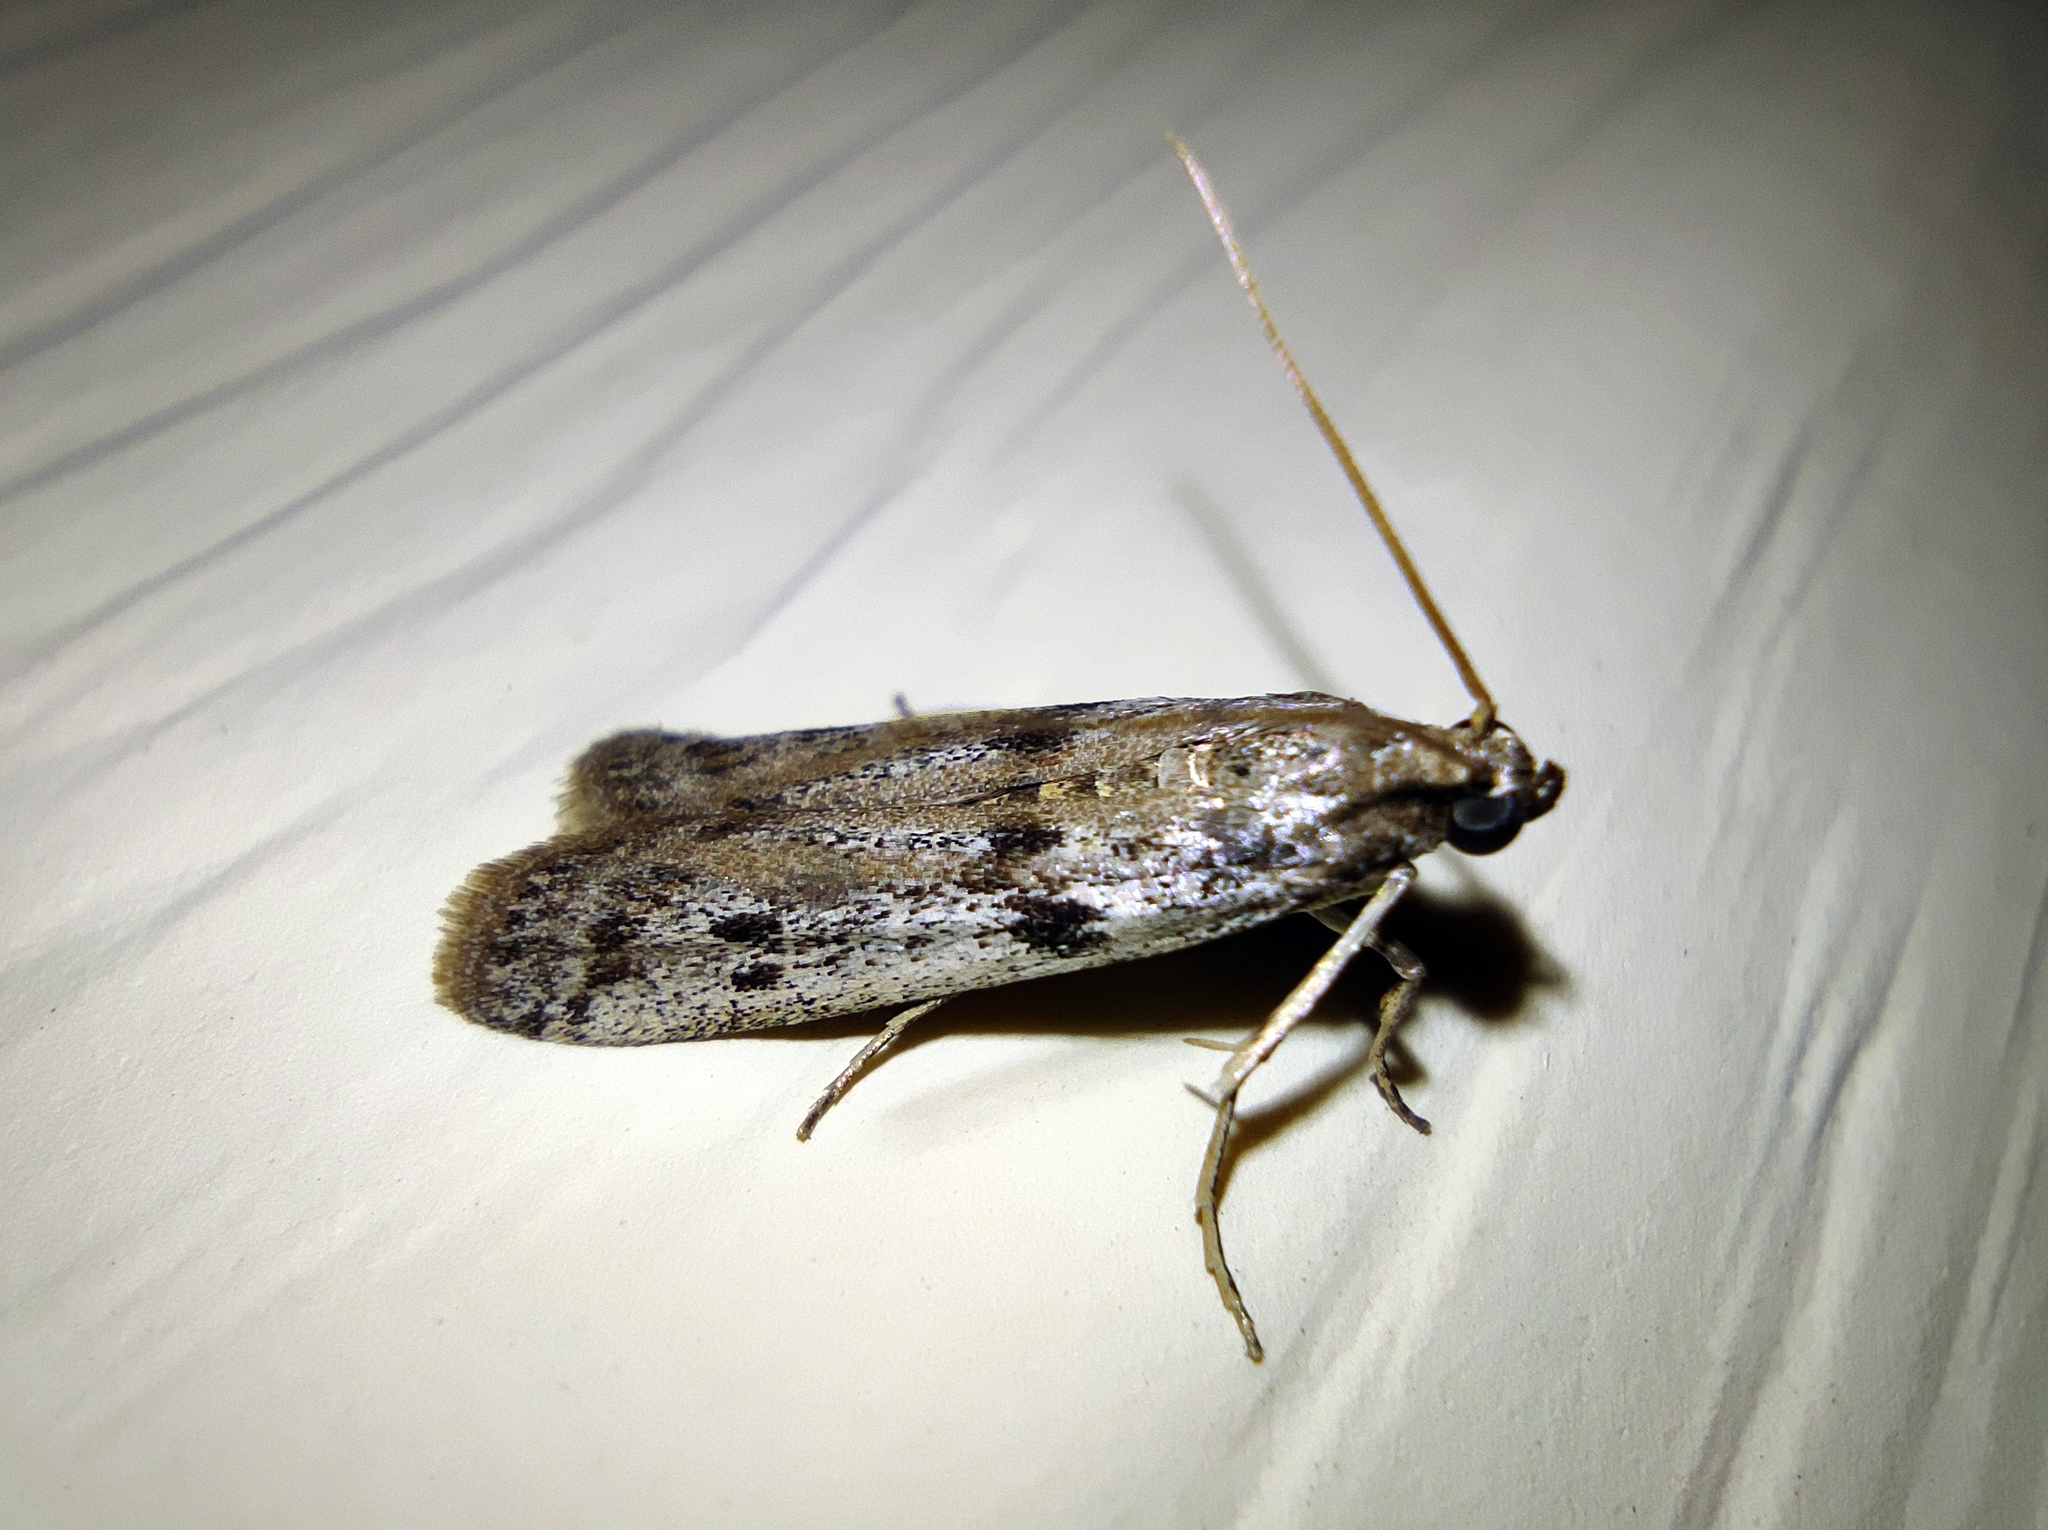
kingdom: Animalia
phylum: Arthropoda
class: Insecta
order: Lepidoptera
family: Pyralidae
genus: Phycitodes
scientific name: Phycitodes binaevella
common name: Ermine knot-horn
